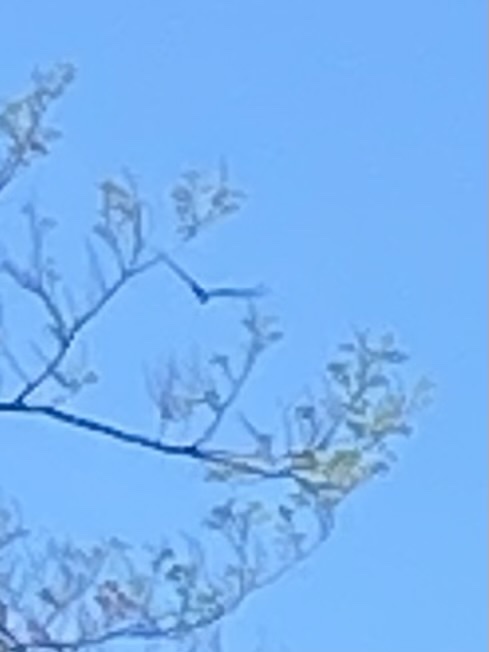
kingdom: Animalia
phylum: Chordata
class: Aves
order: Accipitriformes
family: Cathartidae
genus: Cathartes
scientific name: Cathartes aura
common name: Turkey vulture
